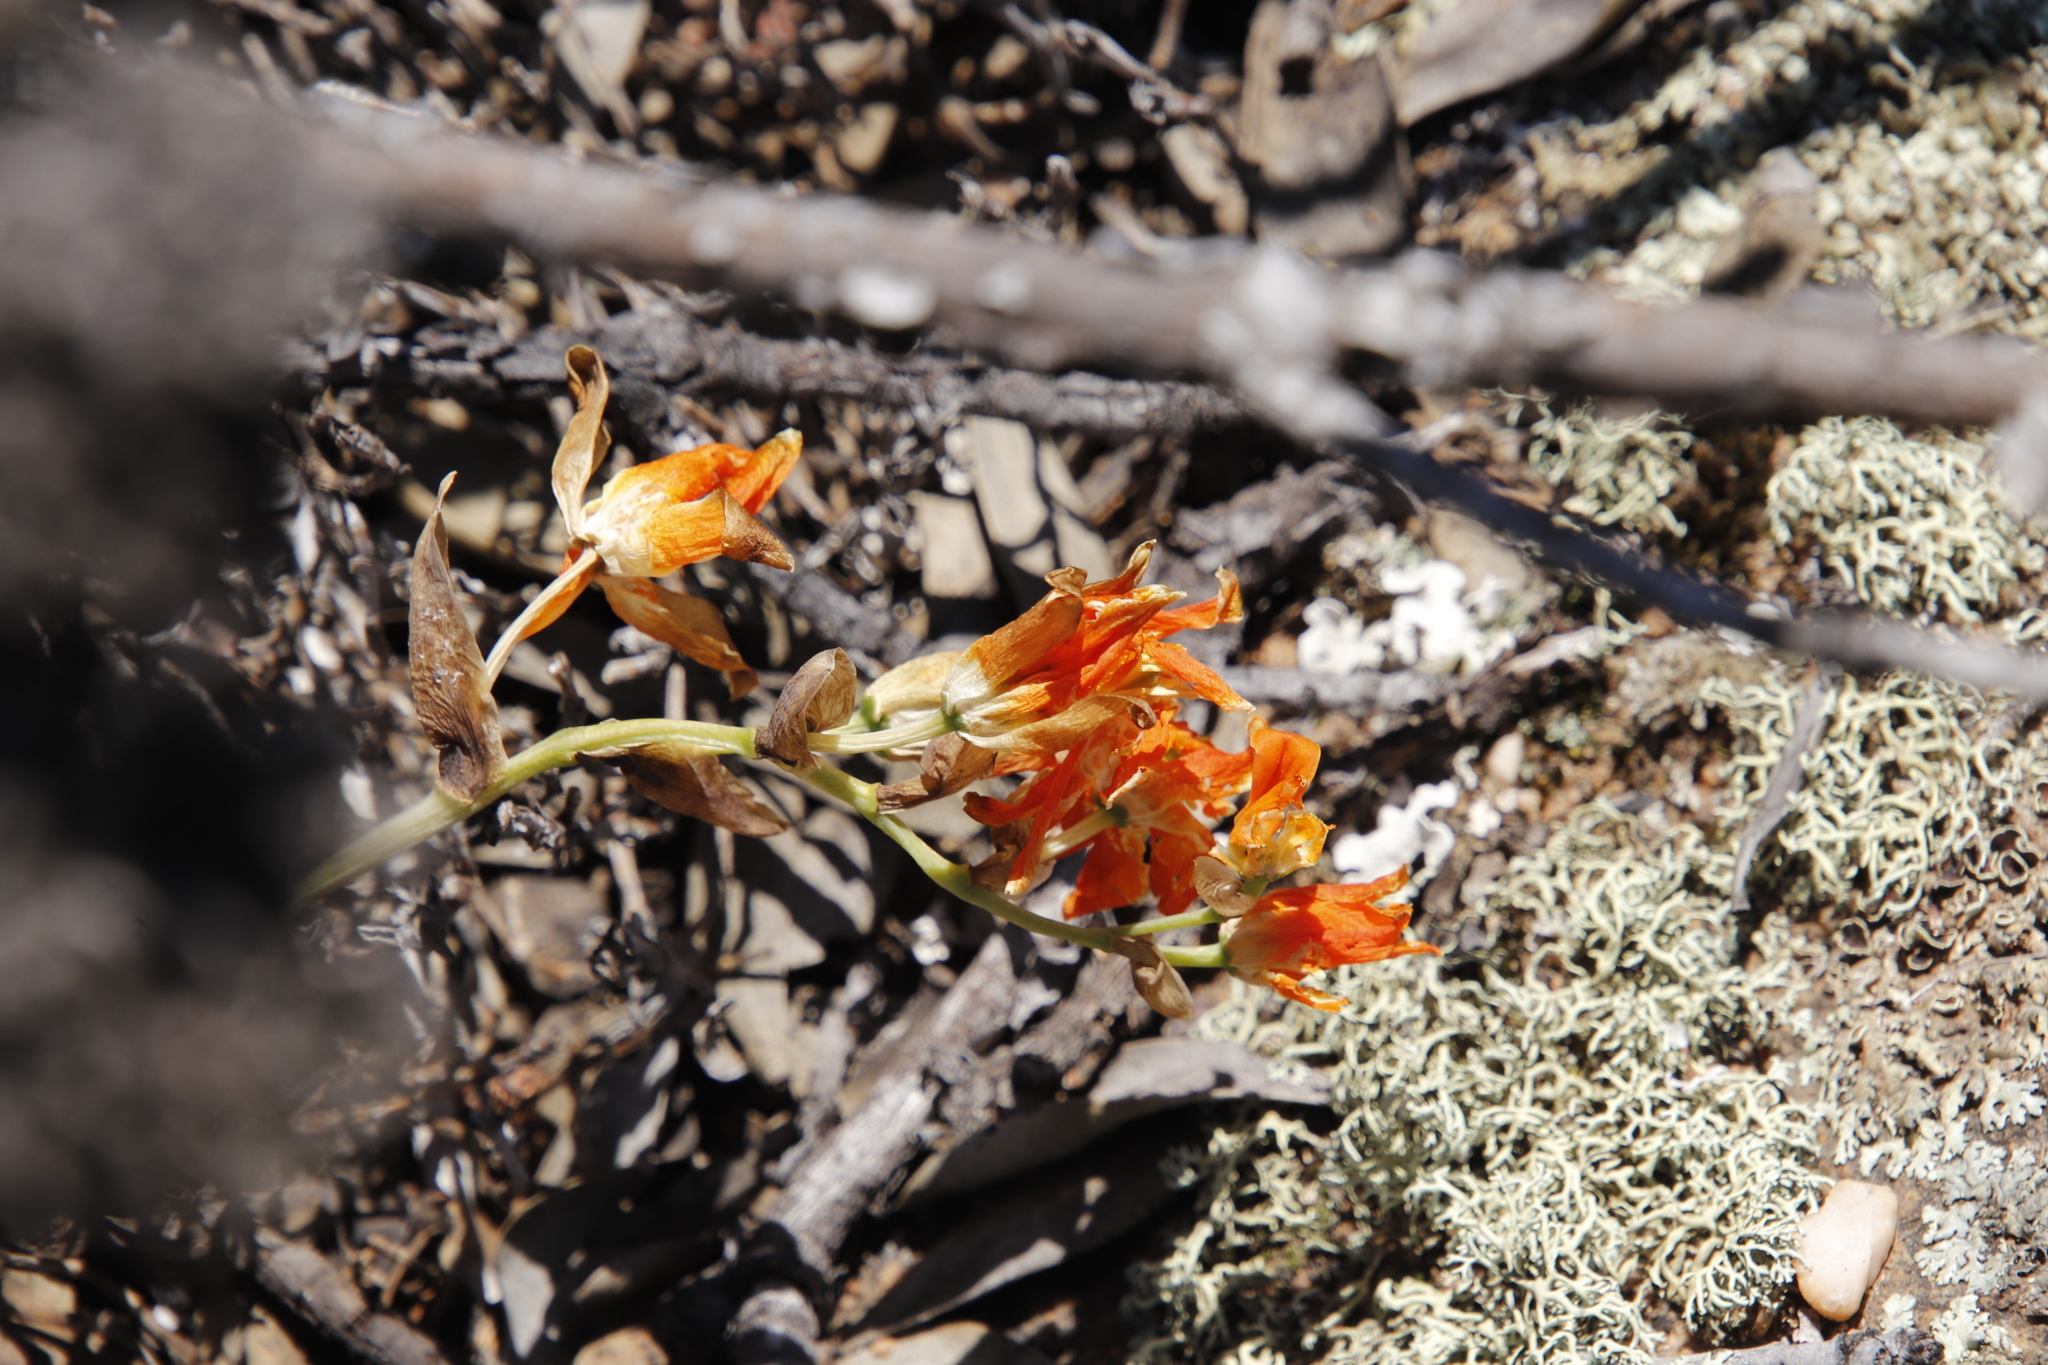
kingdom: Plantae
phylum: Tracheophyta
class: Liliopsida
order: Asparagales
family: Asparagaceae
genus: Ornithogalum
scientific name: Ornithogalum maculatum
